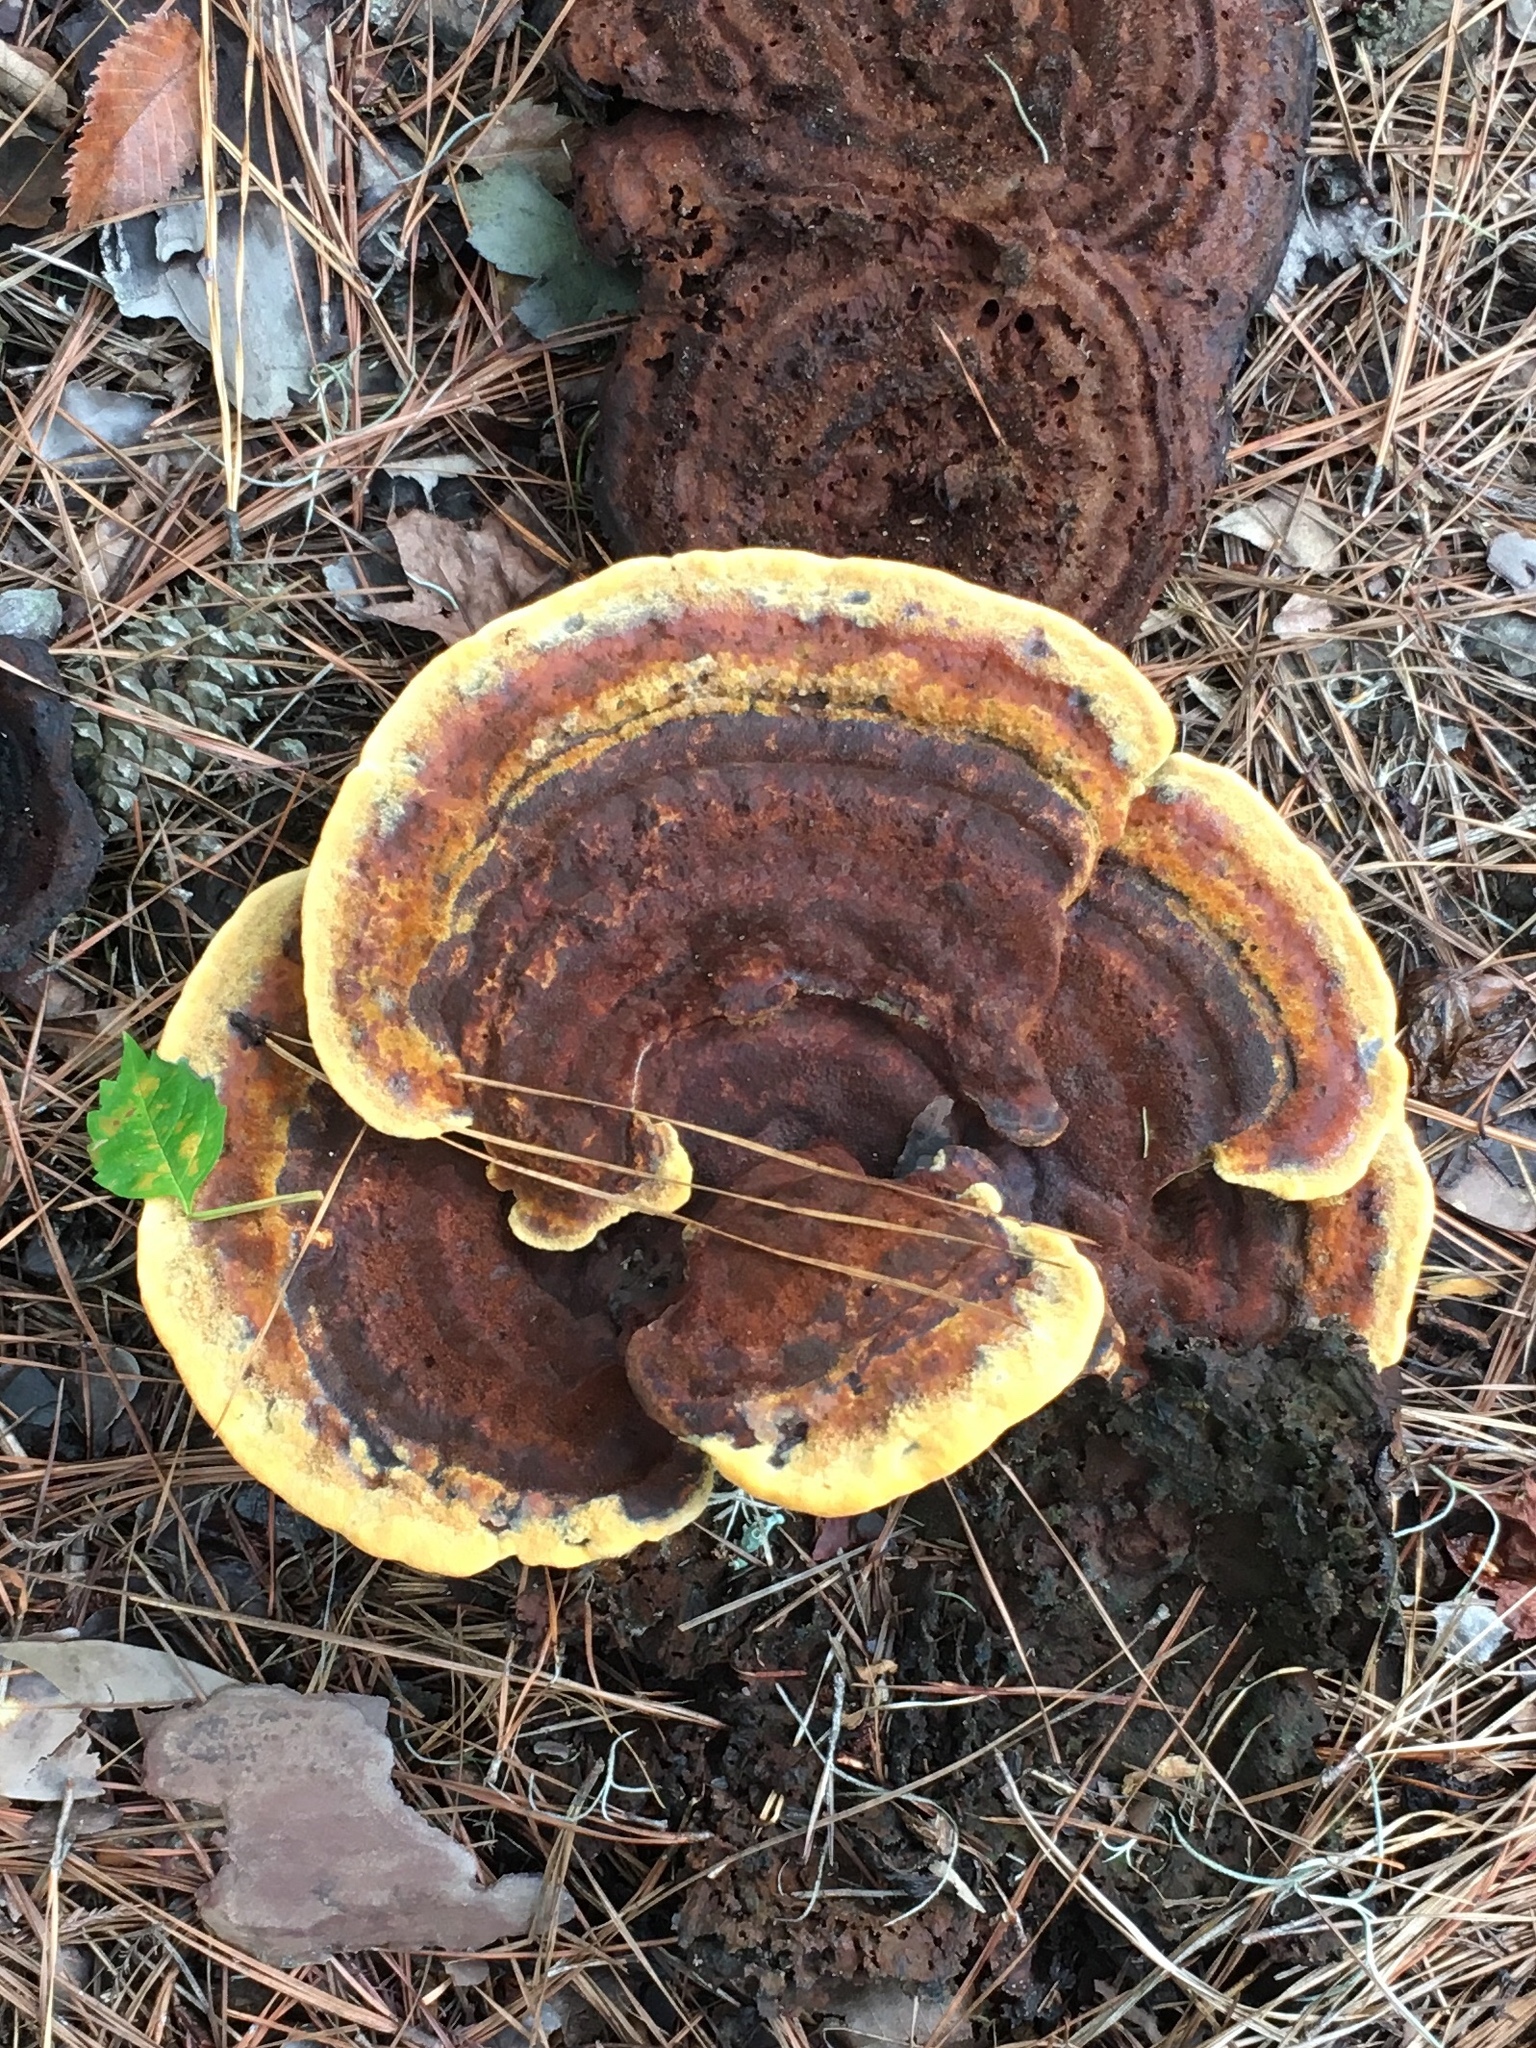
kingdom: Fungi
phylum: Basidiomycota
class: Agaricomycetes
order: Polyporales
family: Laetiporaceae
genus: Phaeolus
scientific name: Phaeolus schweinitzii
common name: Dyer's mazegill
